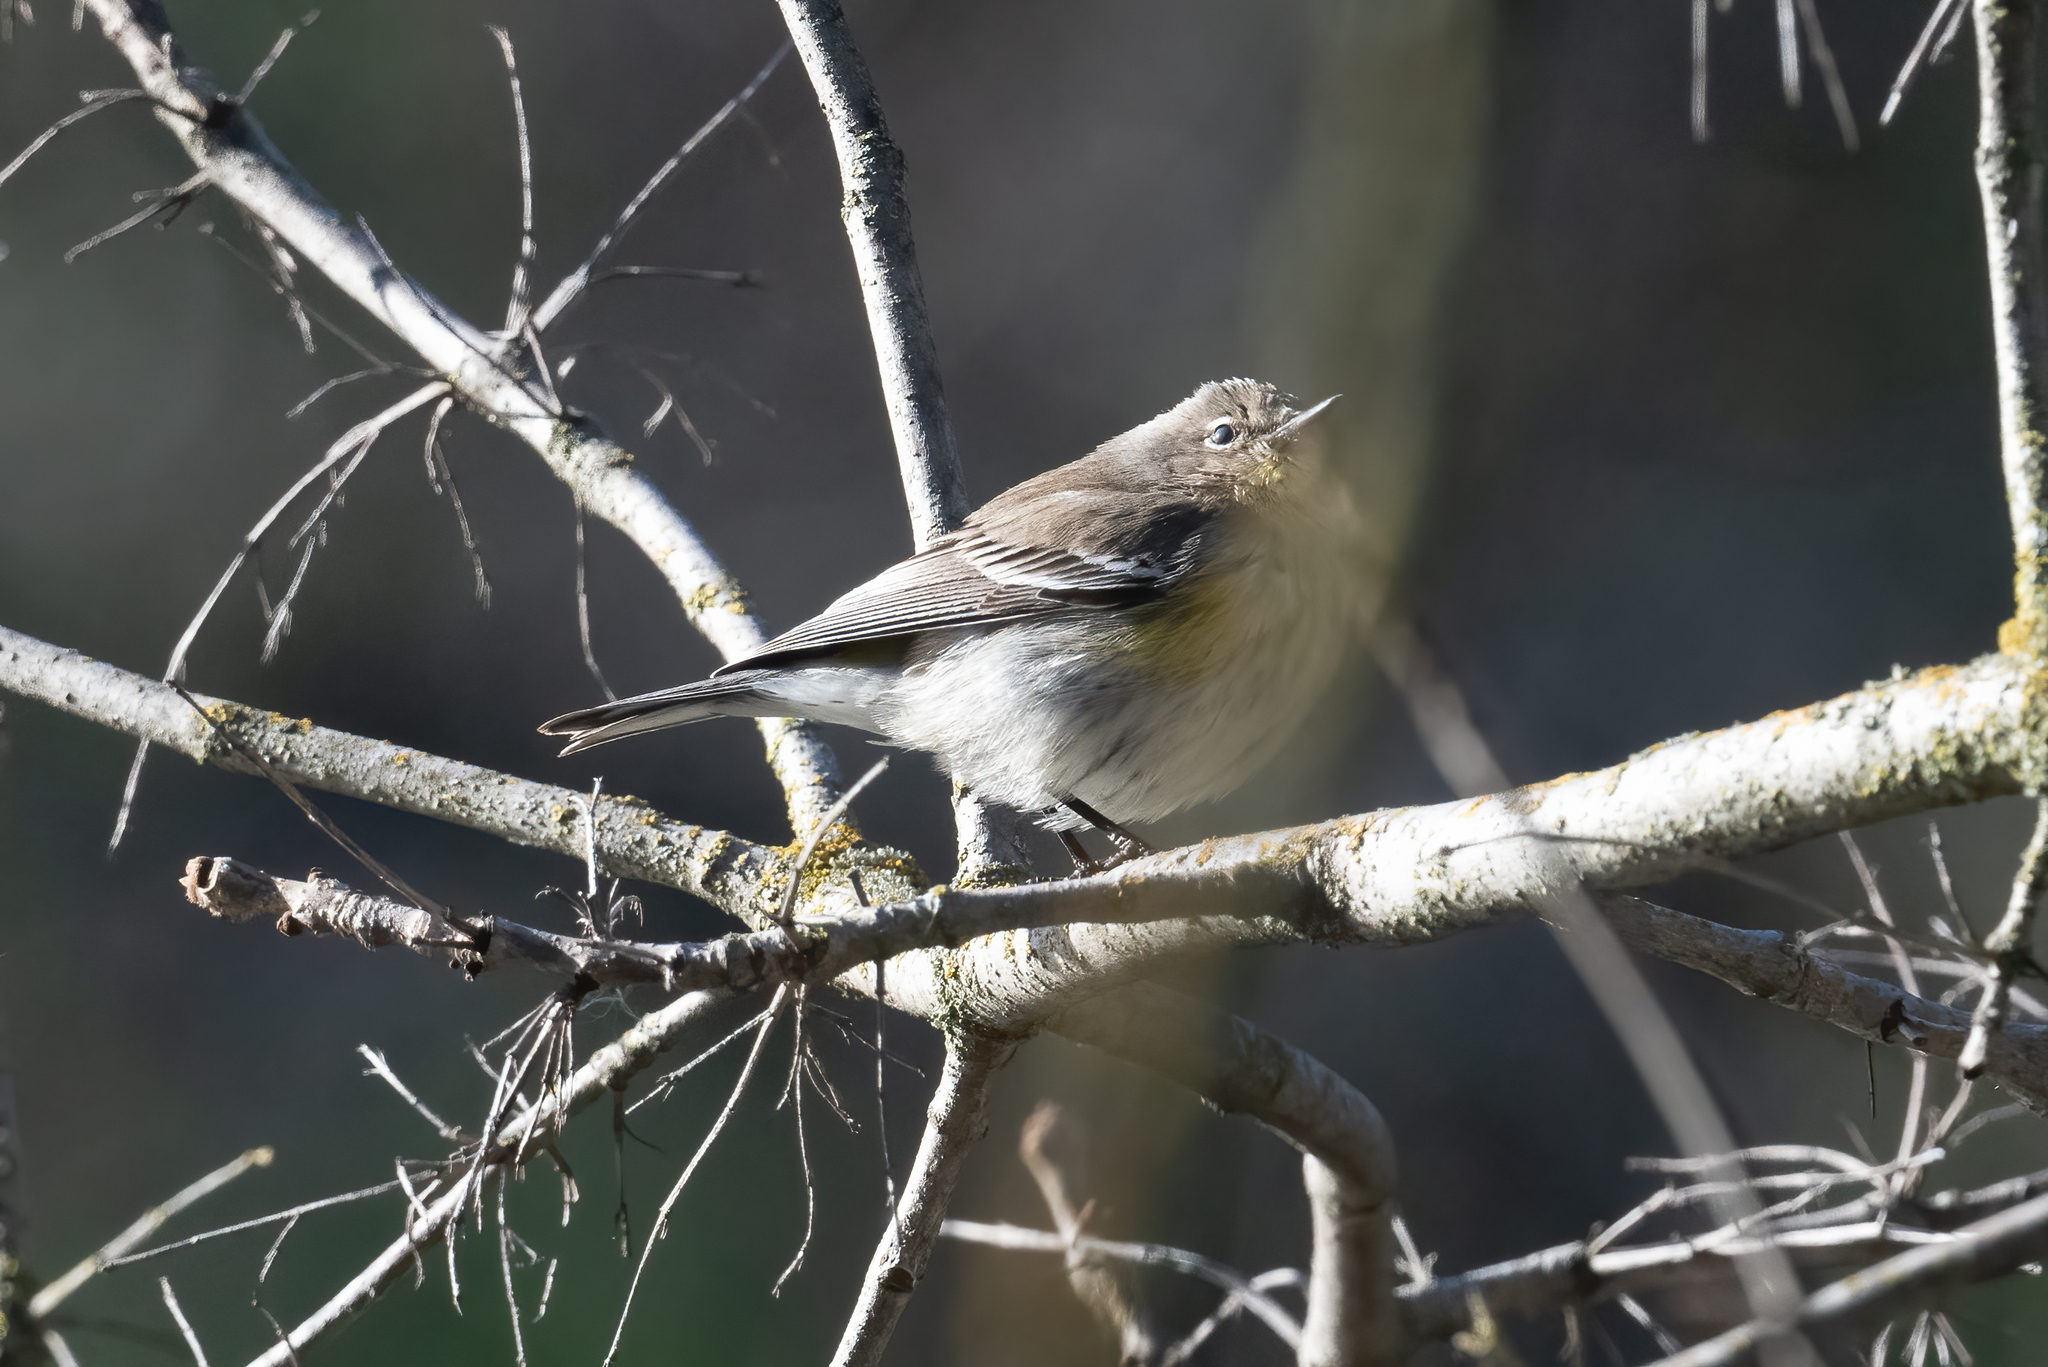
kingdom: Animalia
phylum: Chordata
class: Aves
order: Passeriformes
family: Parulidae
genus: Setophaga
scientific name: Setophaga coronata
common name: Myrtle warbler
